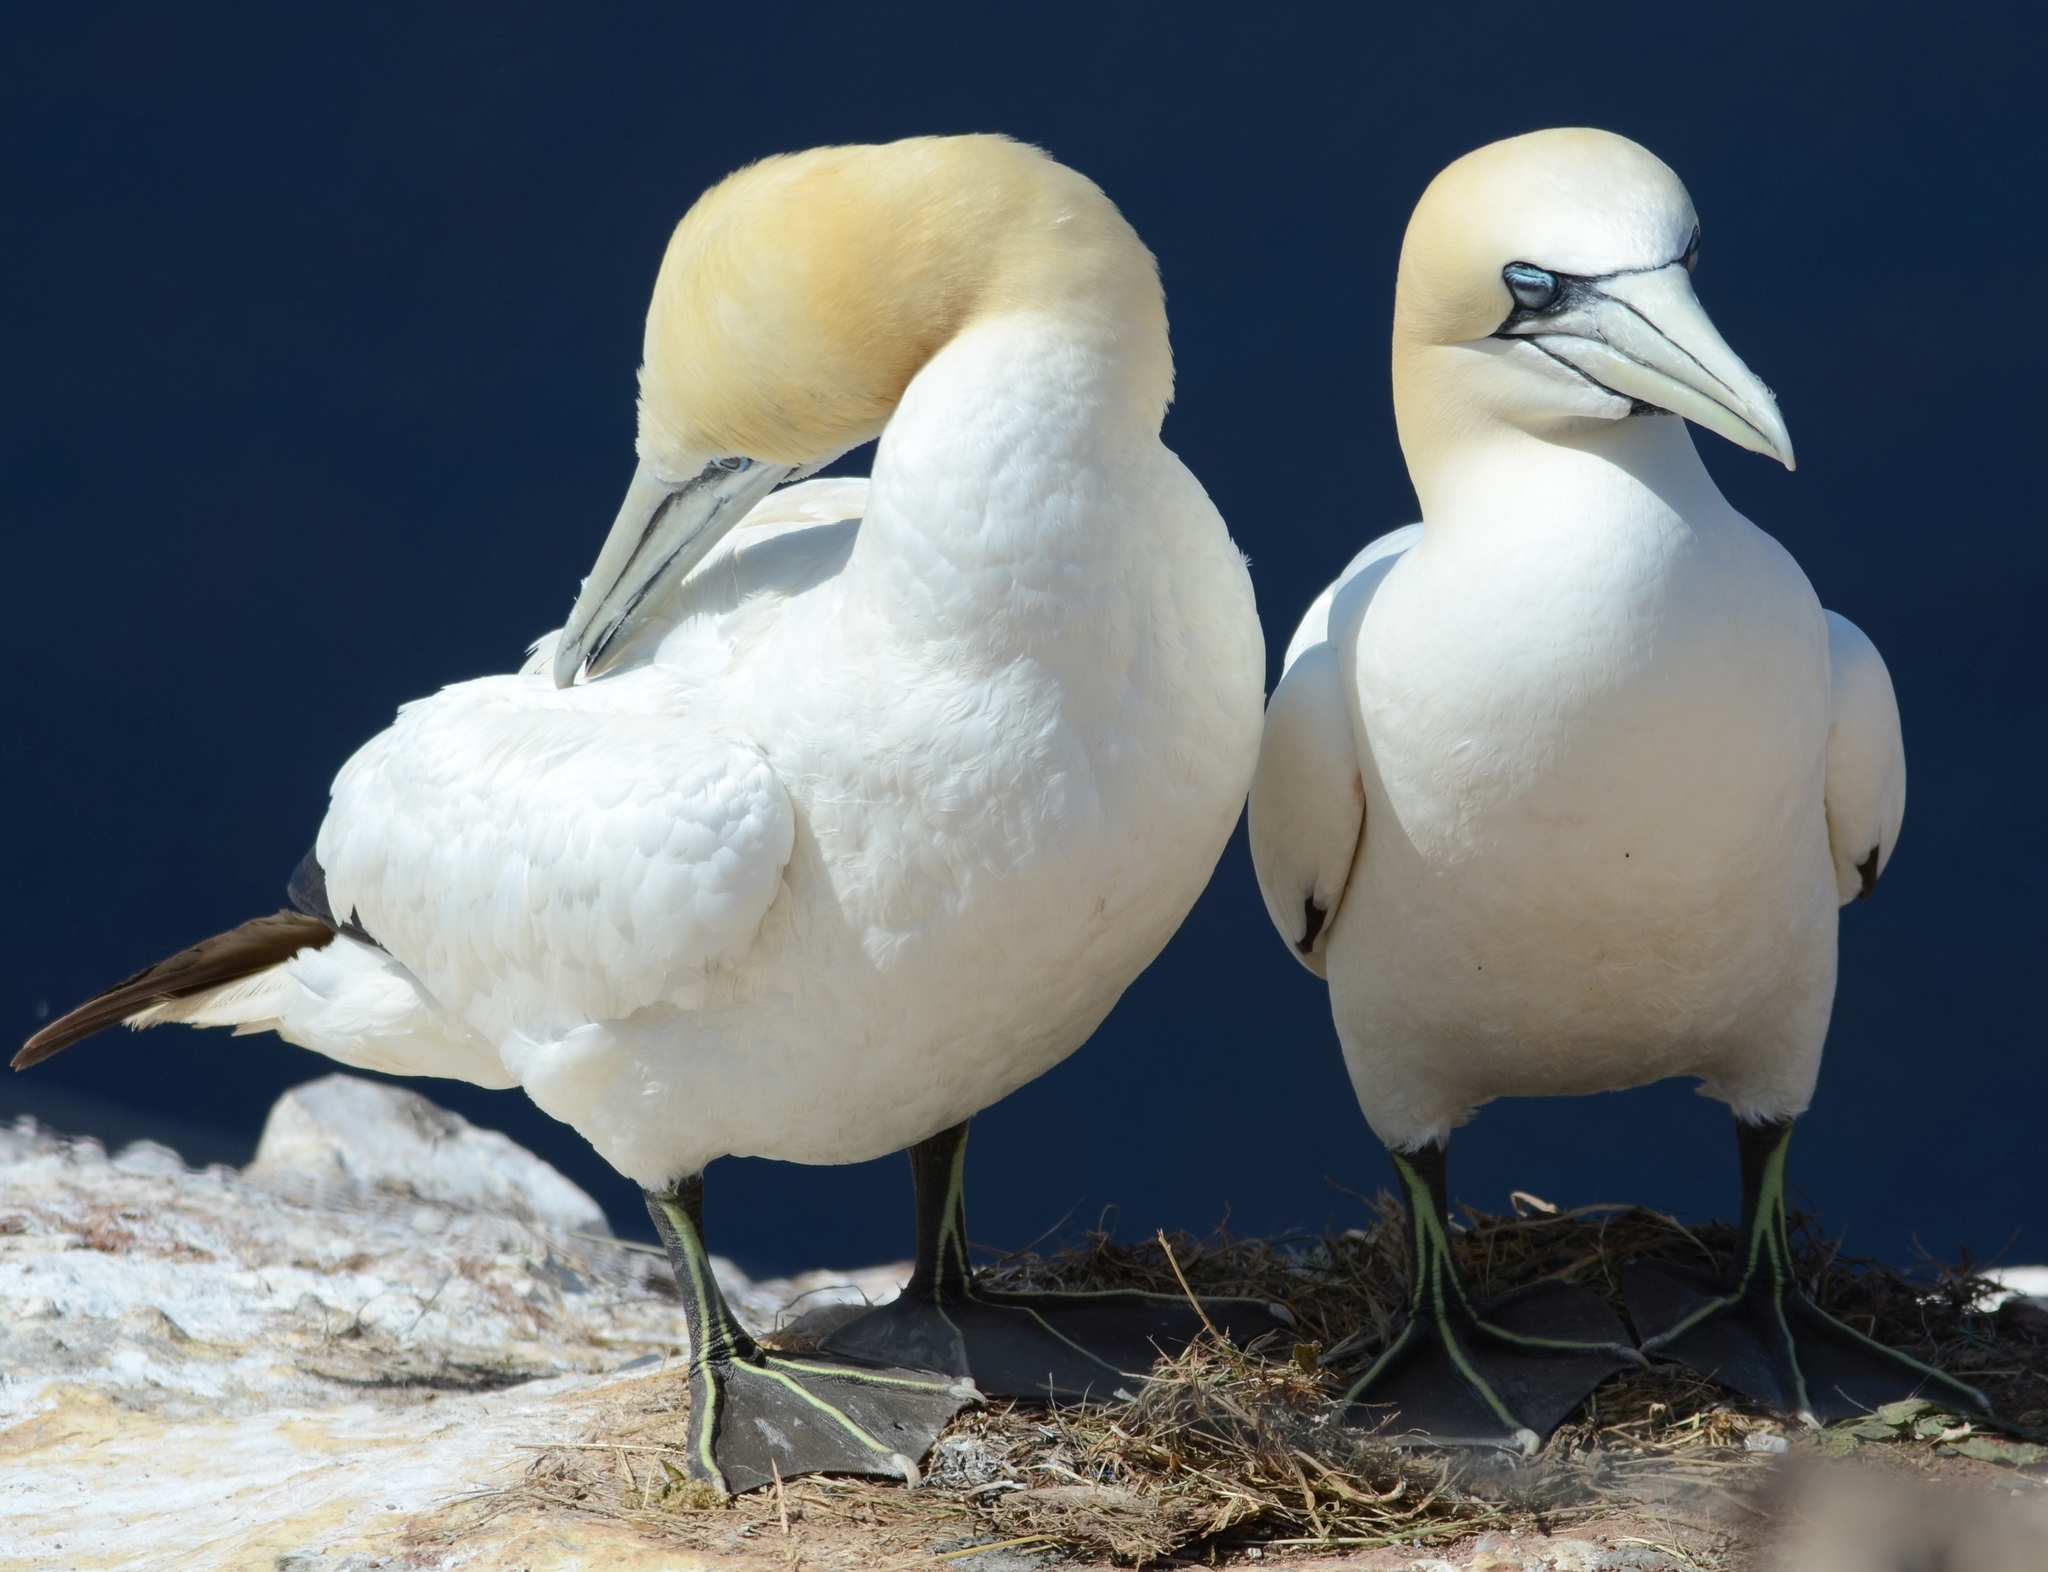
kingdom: Animalia
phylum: Chordata
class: Aves
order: Suliformes
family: Sulidae
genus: Morus
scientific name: Morus bassanus
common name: Northern gannet
